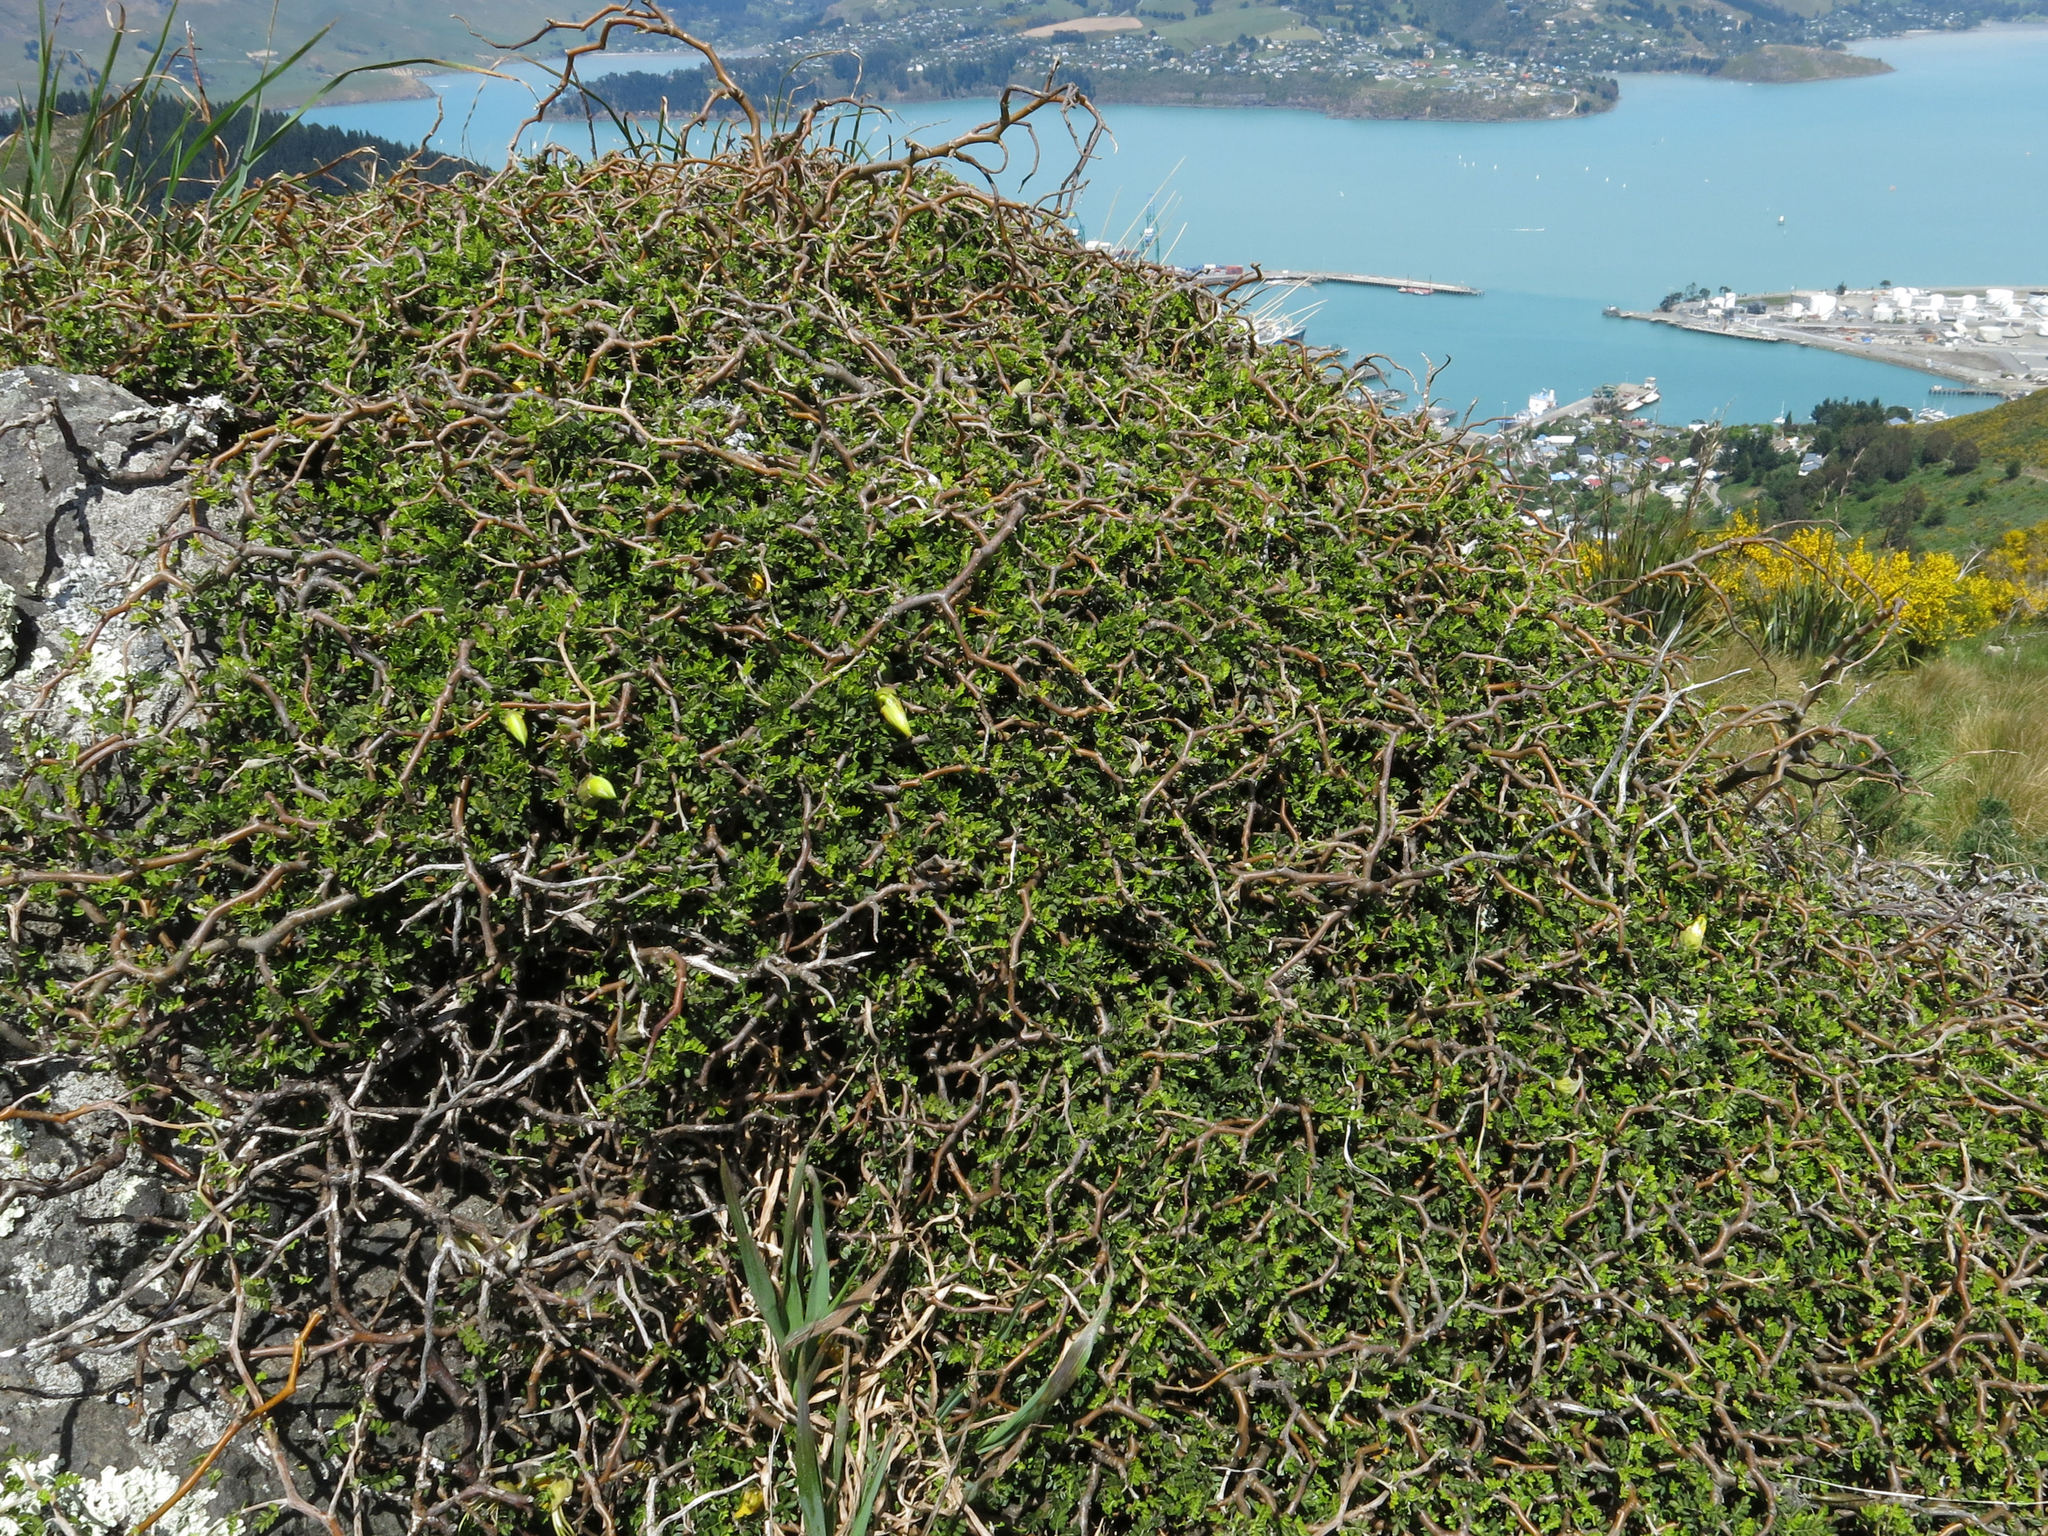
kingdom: Plantae
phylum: Tracheophyta
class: Magnoliopsida
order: Fabales
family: Fabaceae
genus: Sophora
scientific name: Sophora prostrata
